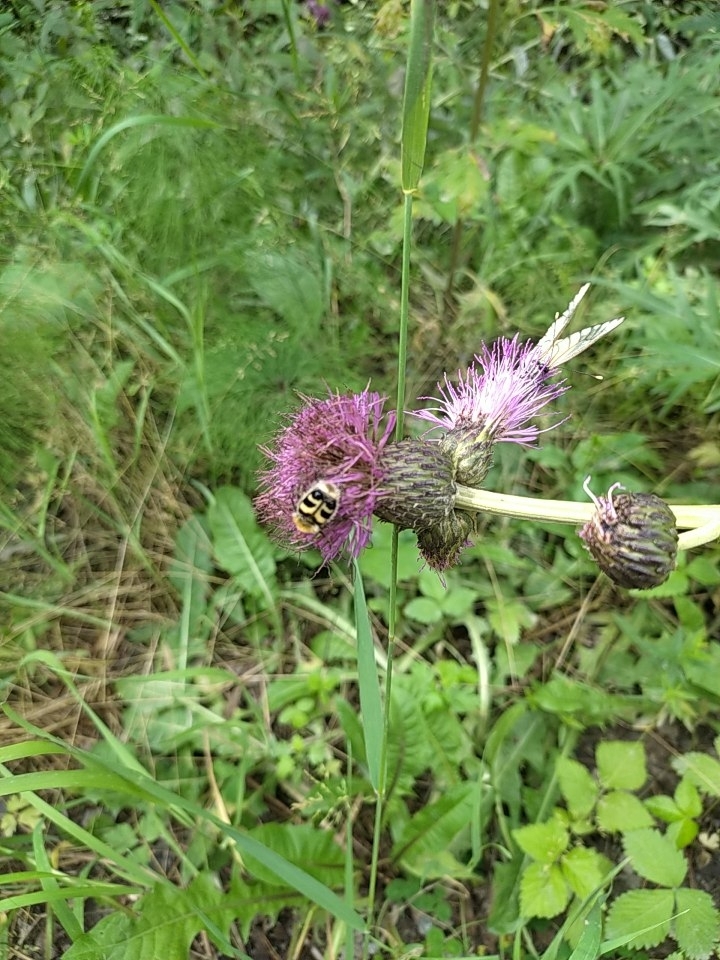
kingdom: Animalia
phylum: Arthropoda
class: Insecta
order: Coleoptera
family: Scarabaeidae
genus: Trichius
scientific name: Trichius fasciatus
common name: Bee beetle
